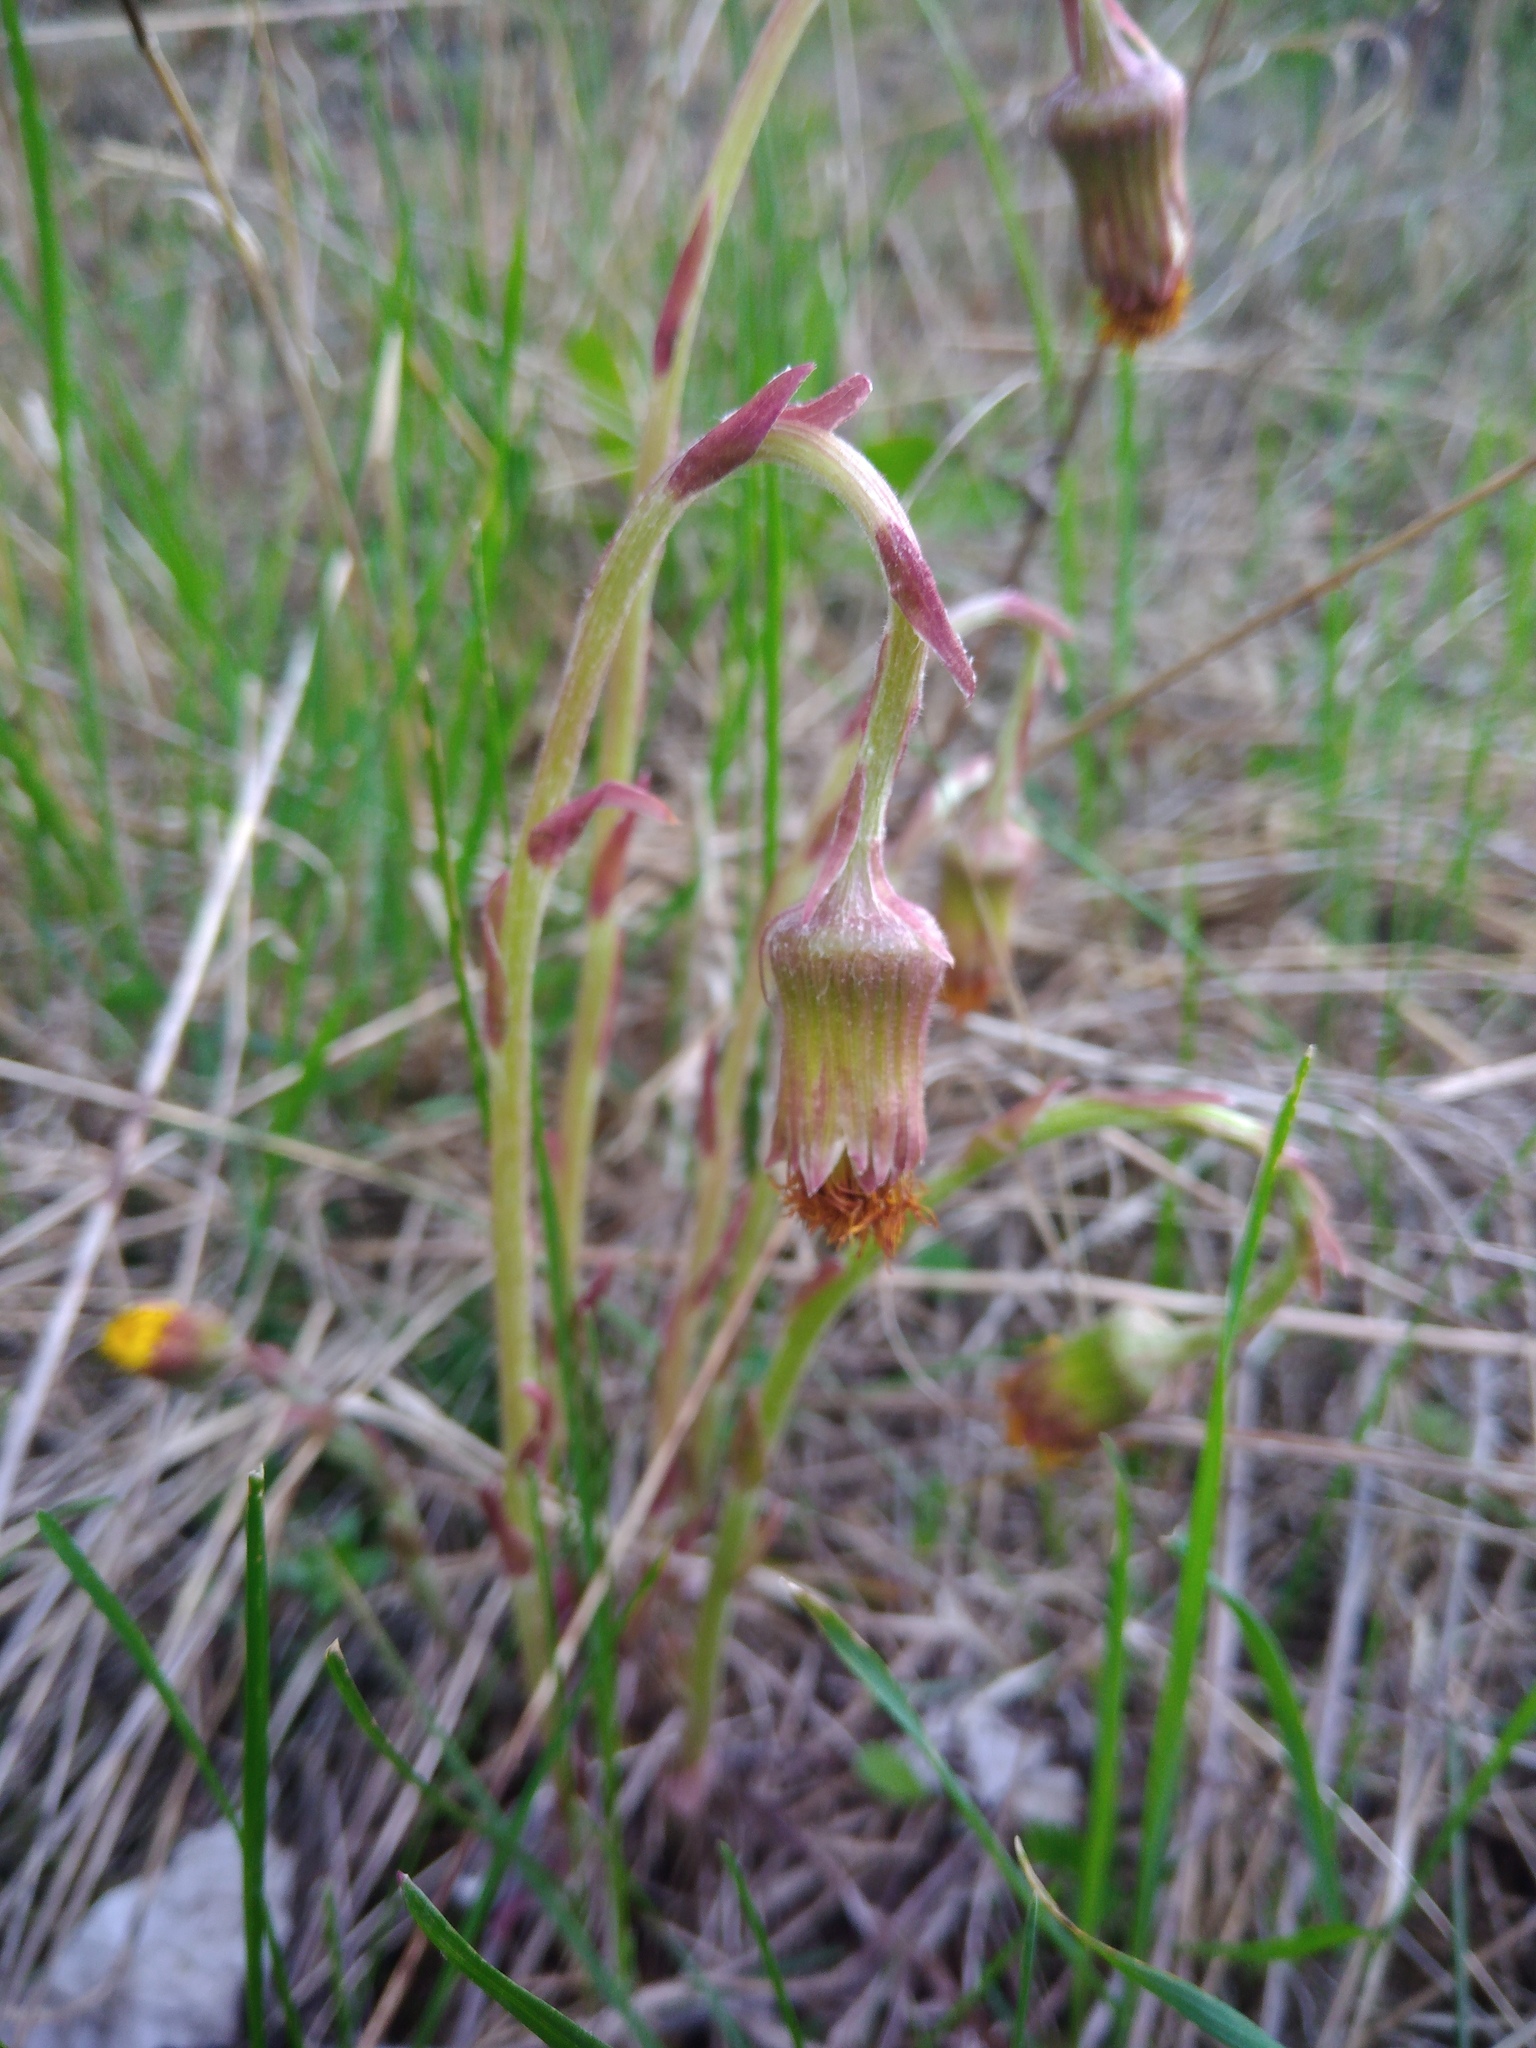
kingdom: Plantae
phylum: Tracheophyta
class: Magnoliopsida
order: Asterales
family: Asteraceae
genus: Tussilago
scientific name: Tussilago farfara
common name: Coltsfoot
